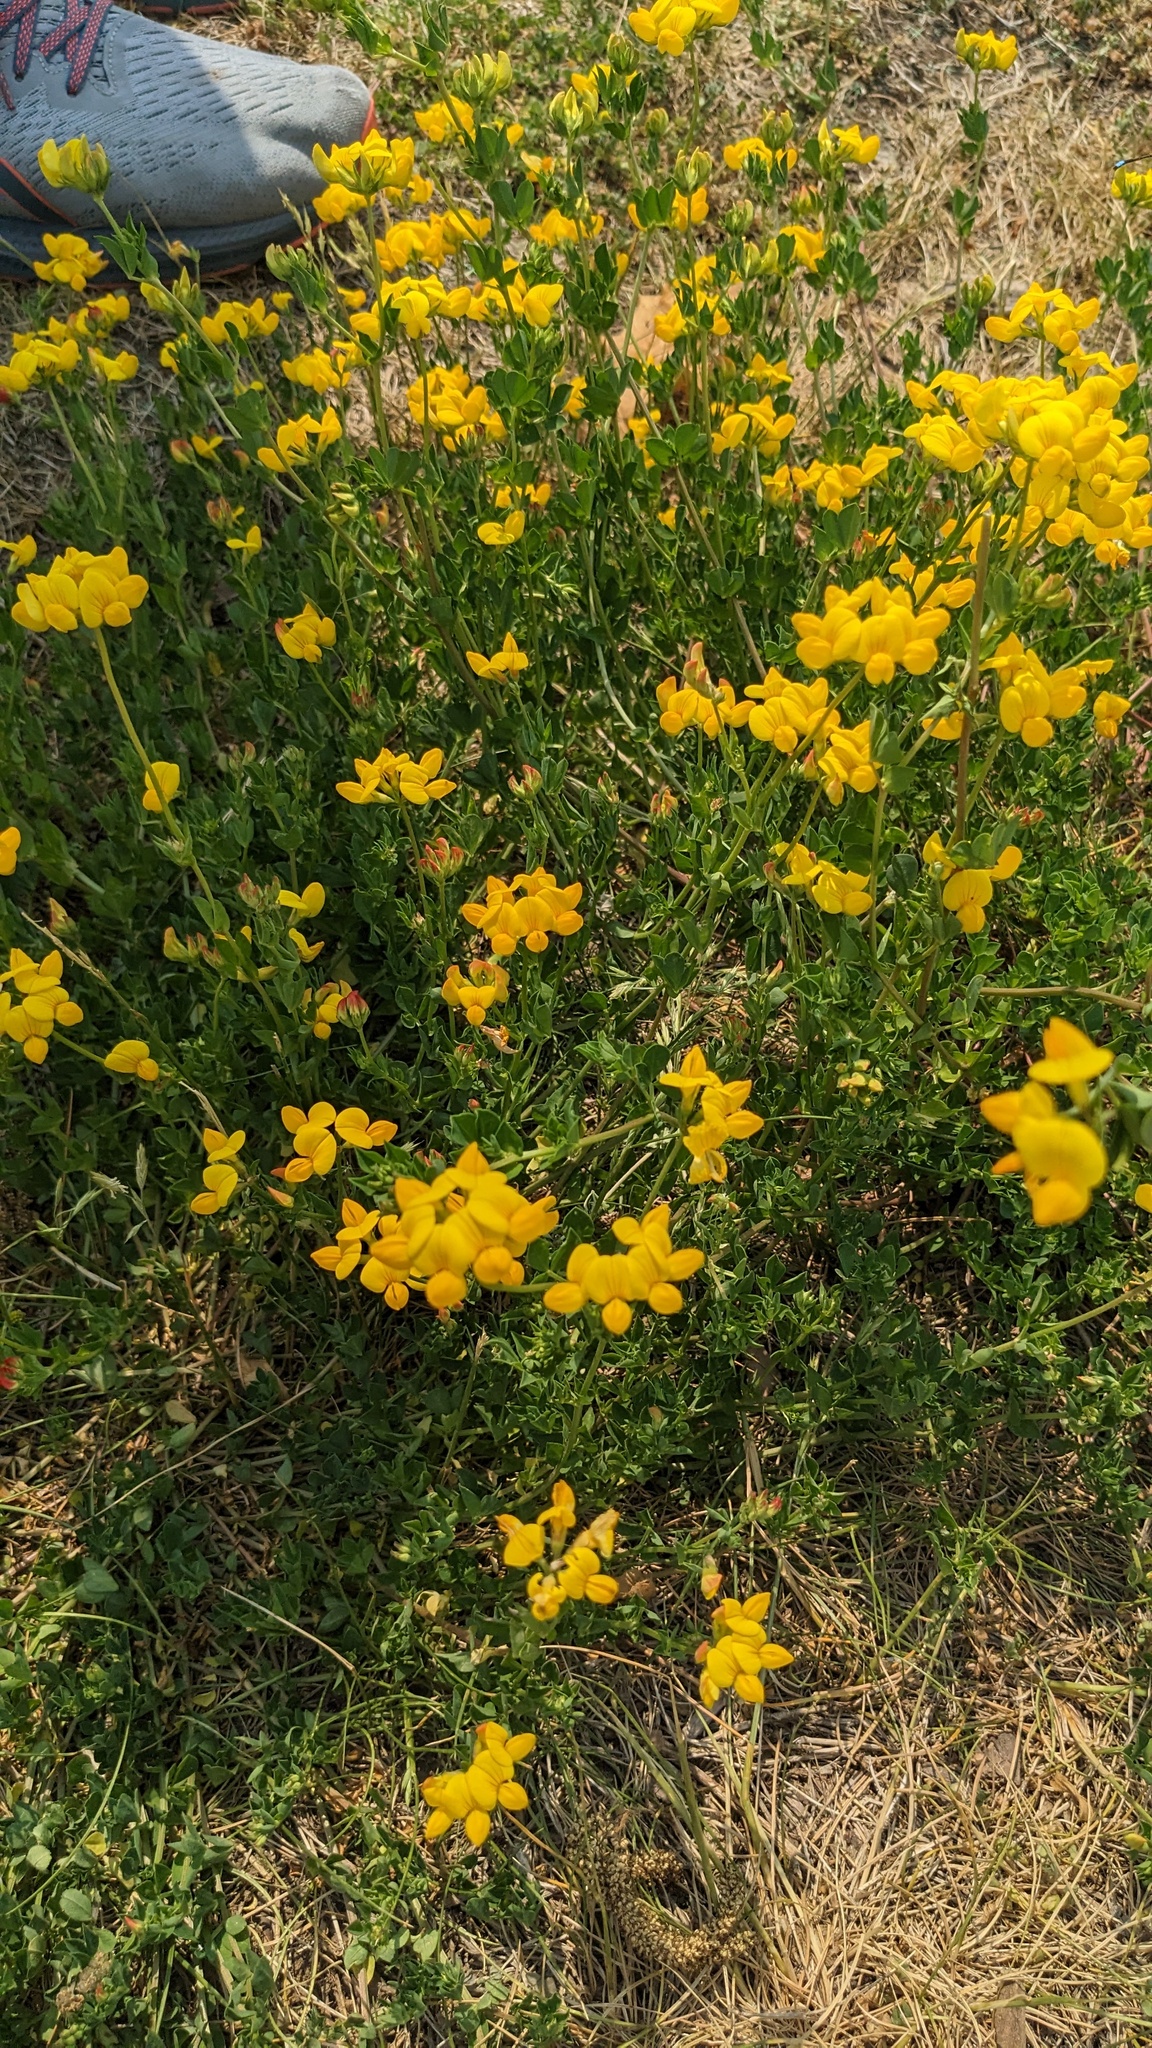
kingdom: Plantae
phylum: Tracheophyta
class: Magnoliopsida
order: Fabales
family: Fabaceae
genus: Lotus
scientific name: Lotus corniculatus
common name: Common bird's-foot-trefoil
